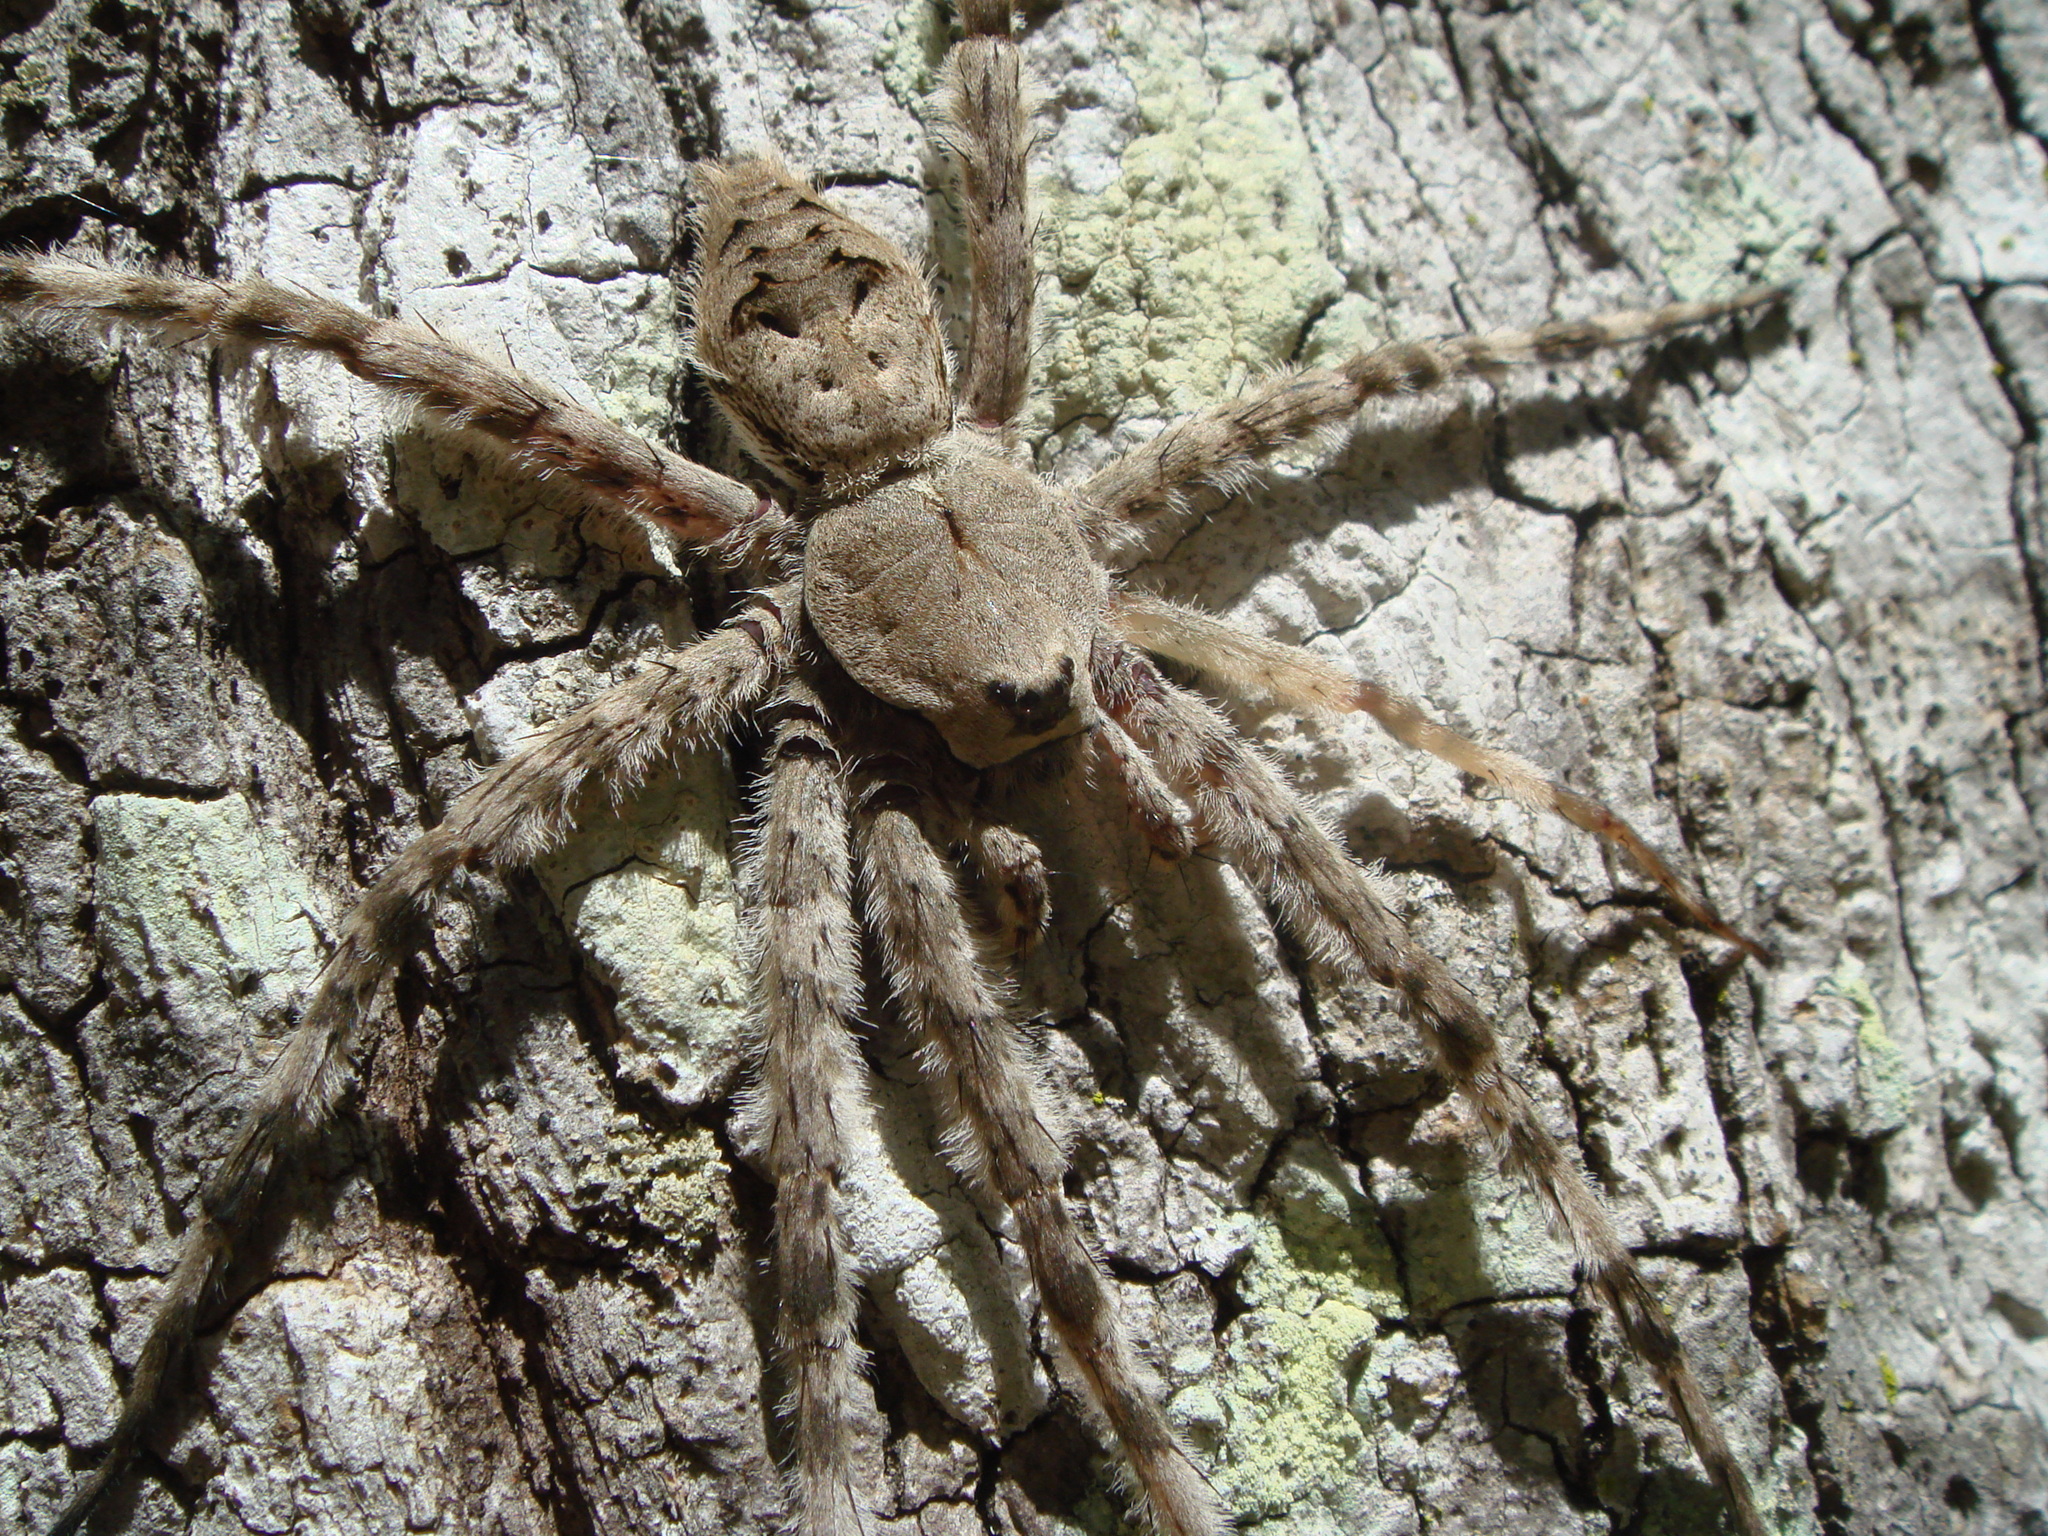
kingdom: Animalia
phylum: Arthropoda
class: Arachnida
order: Araneae
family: Pisauridae
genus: Dolomedes
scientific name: Dolomedes albineus
